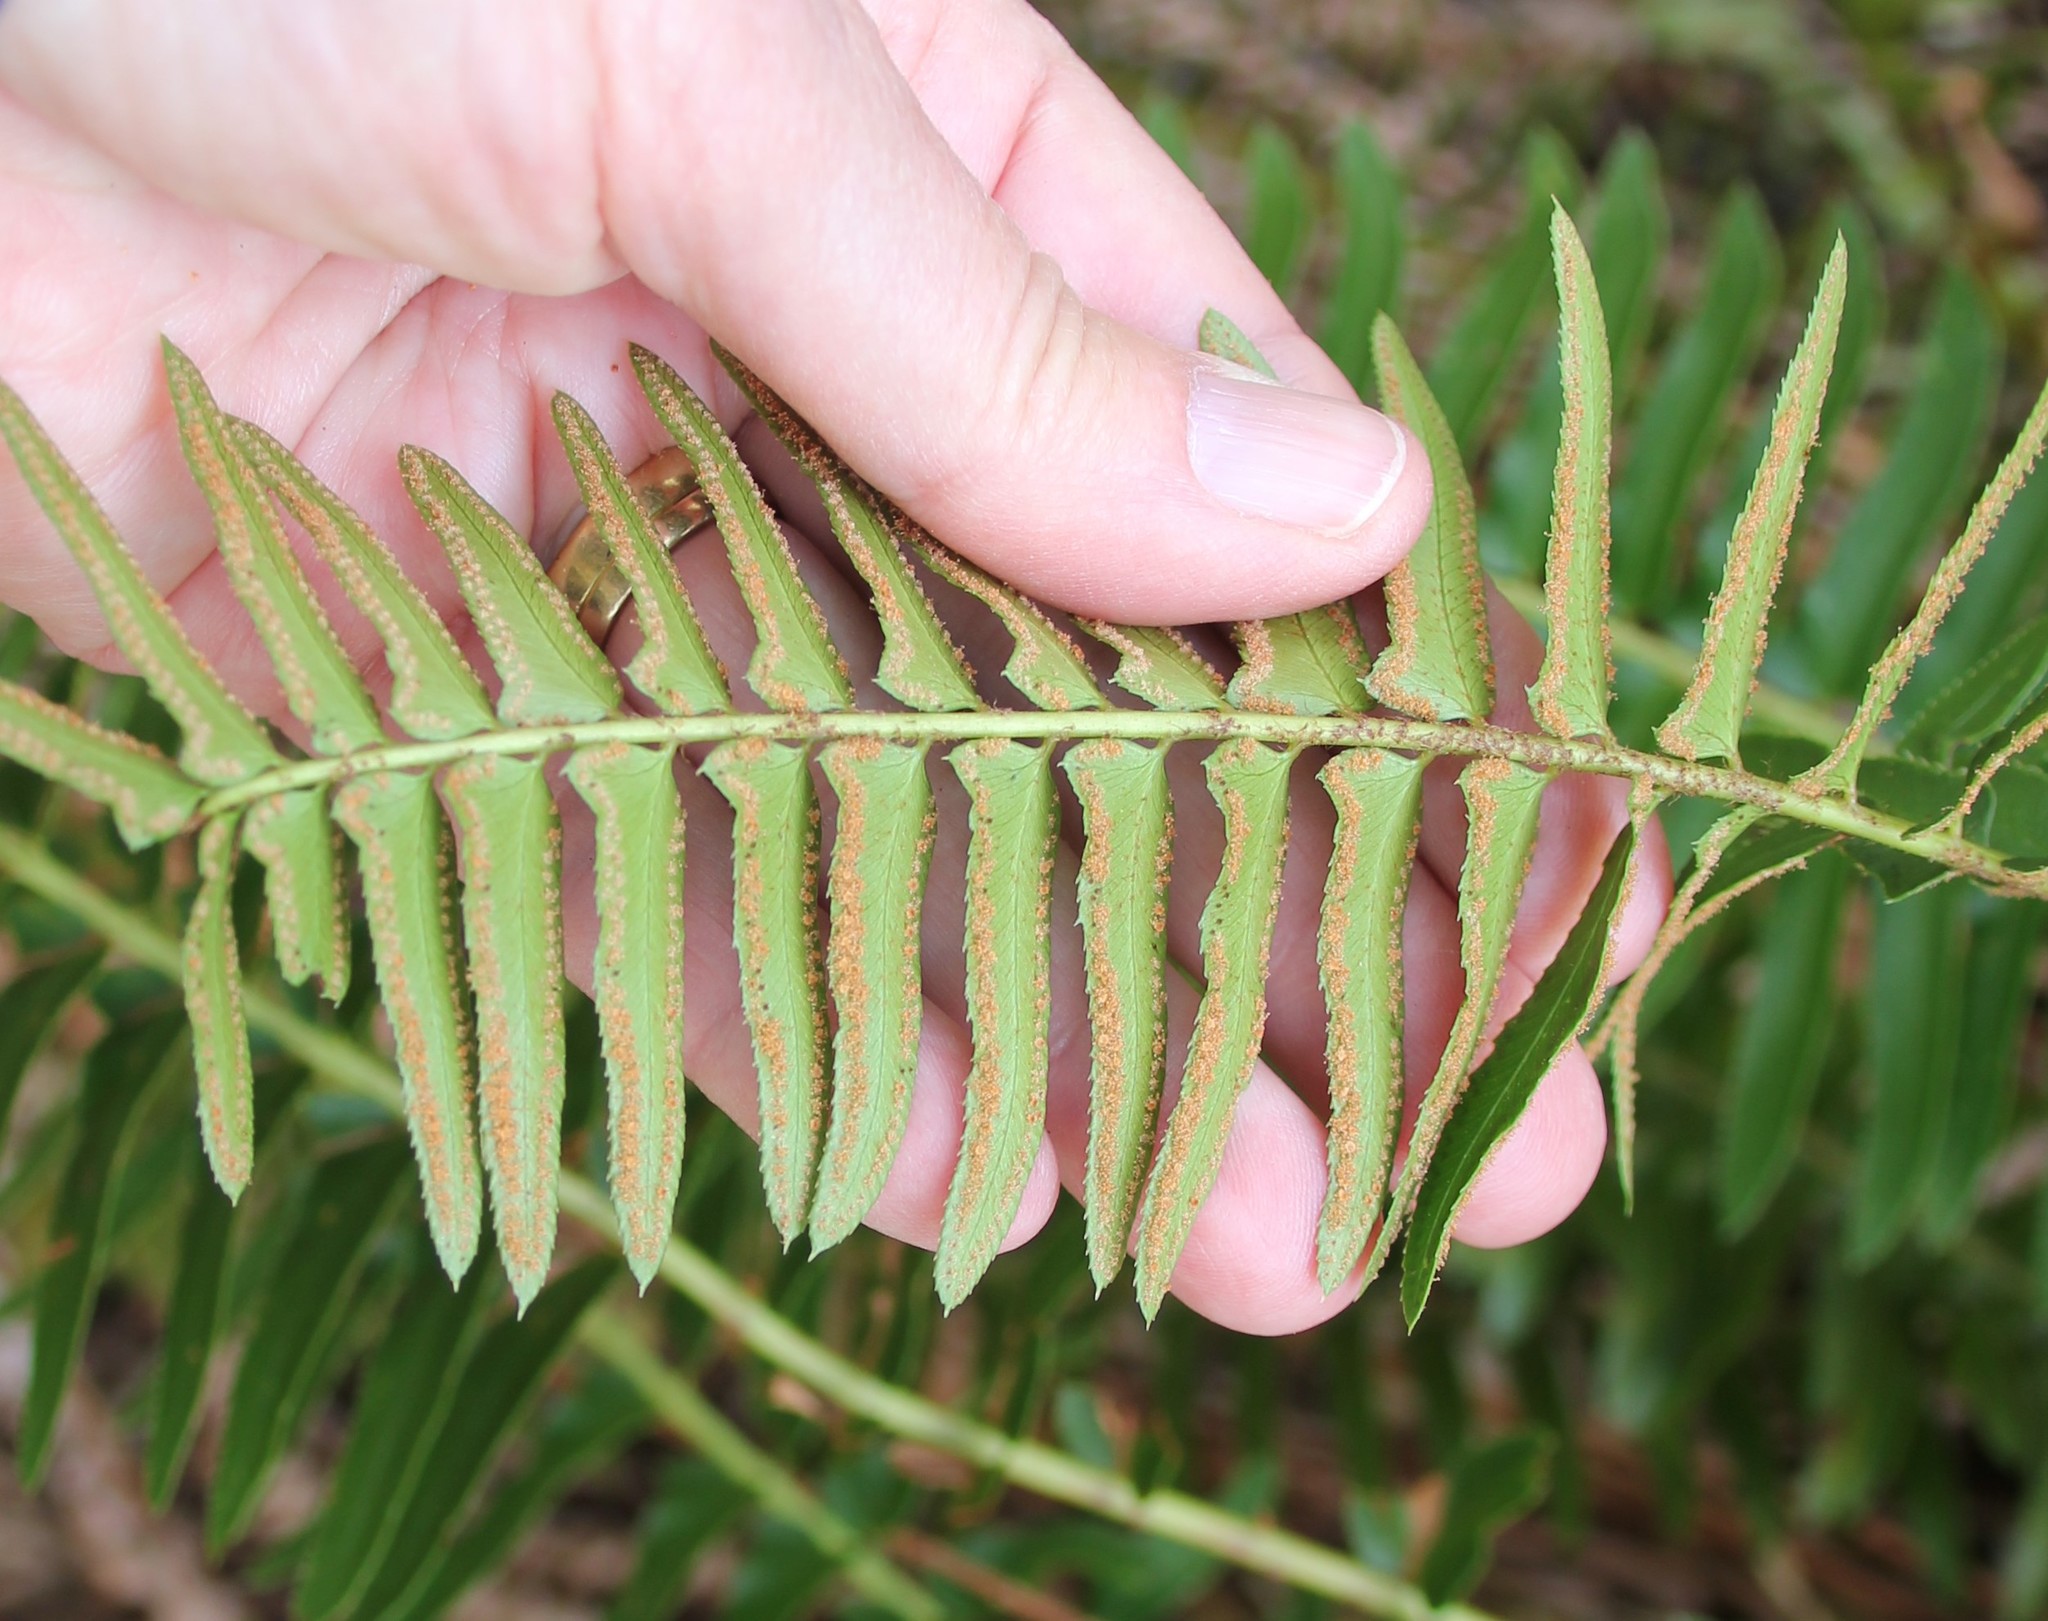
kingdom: Plantae
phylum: Tracheophyta
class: Polypodiopsida
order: Polypodiales
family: Dryopteridaceae
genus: Polystichum
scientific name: Polystichum imbricans
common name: Dwarf western sword fern
